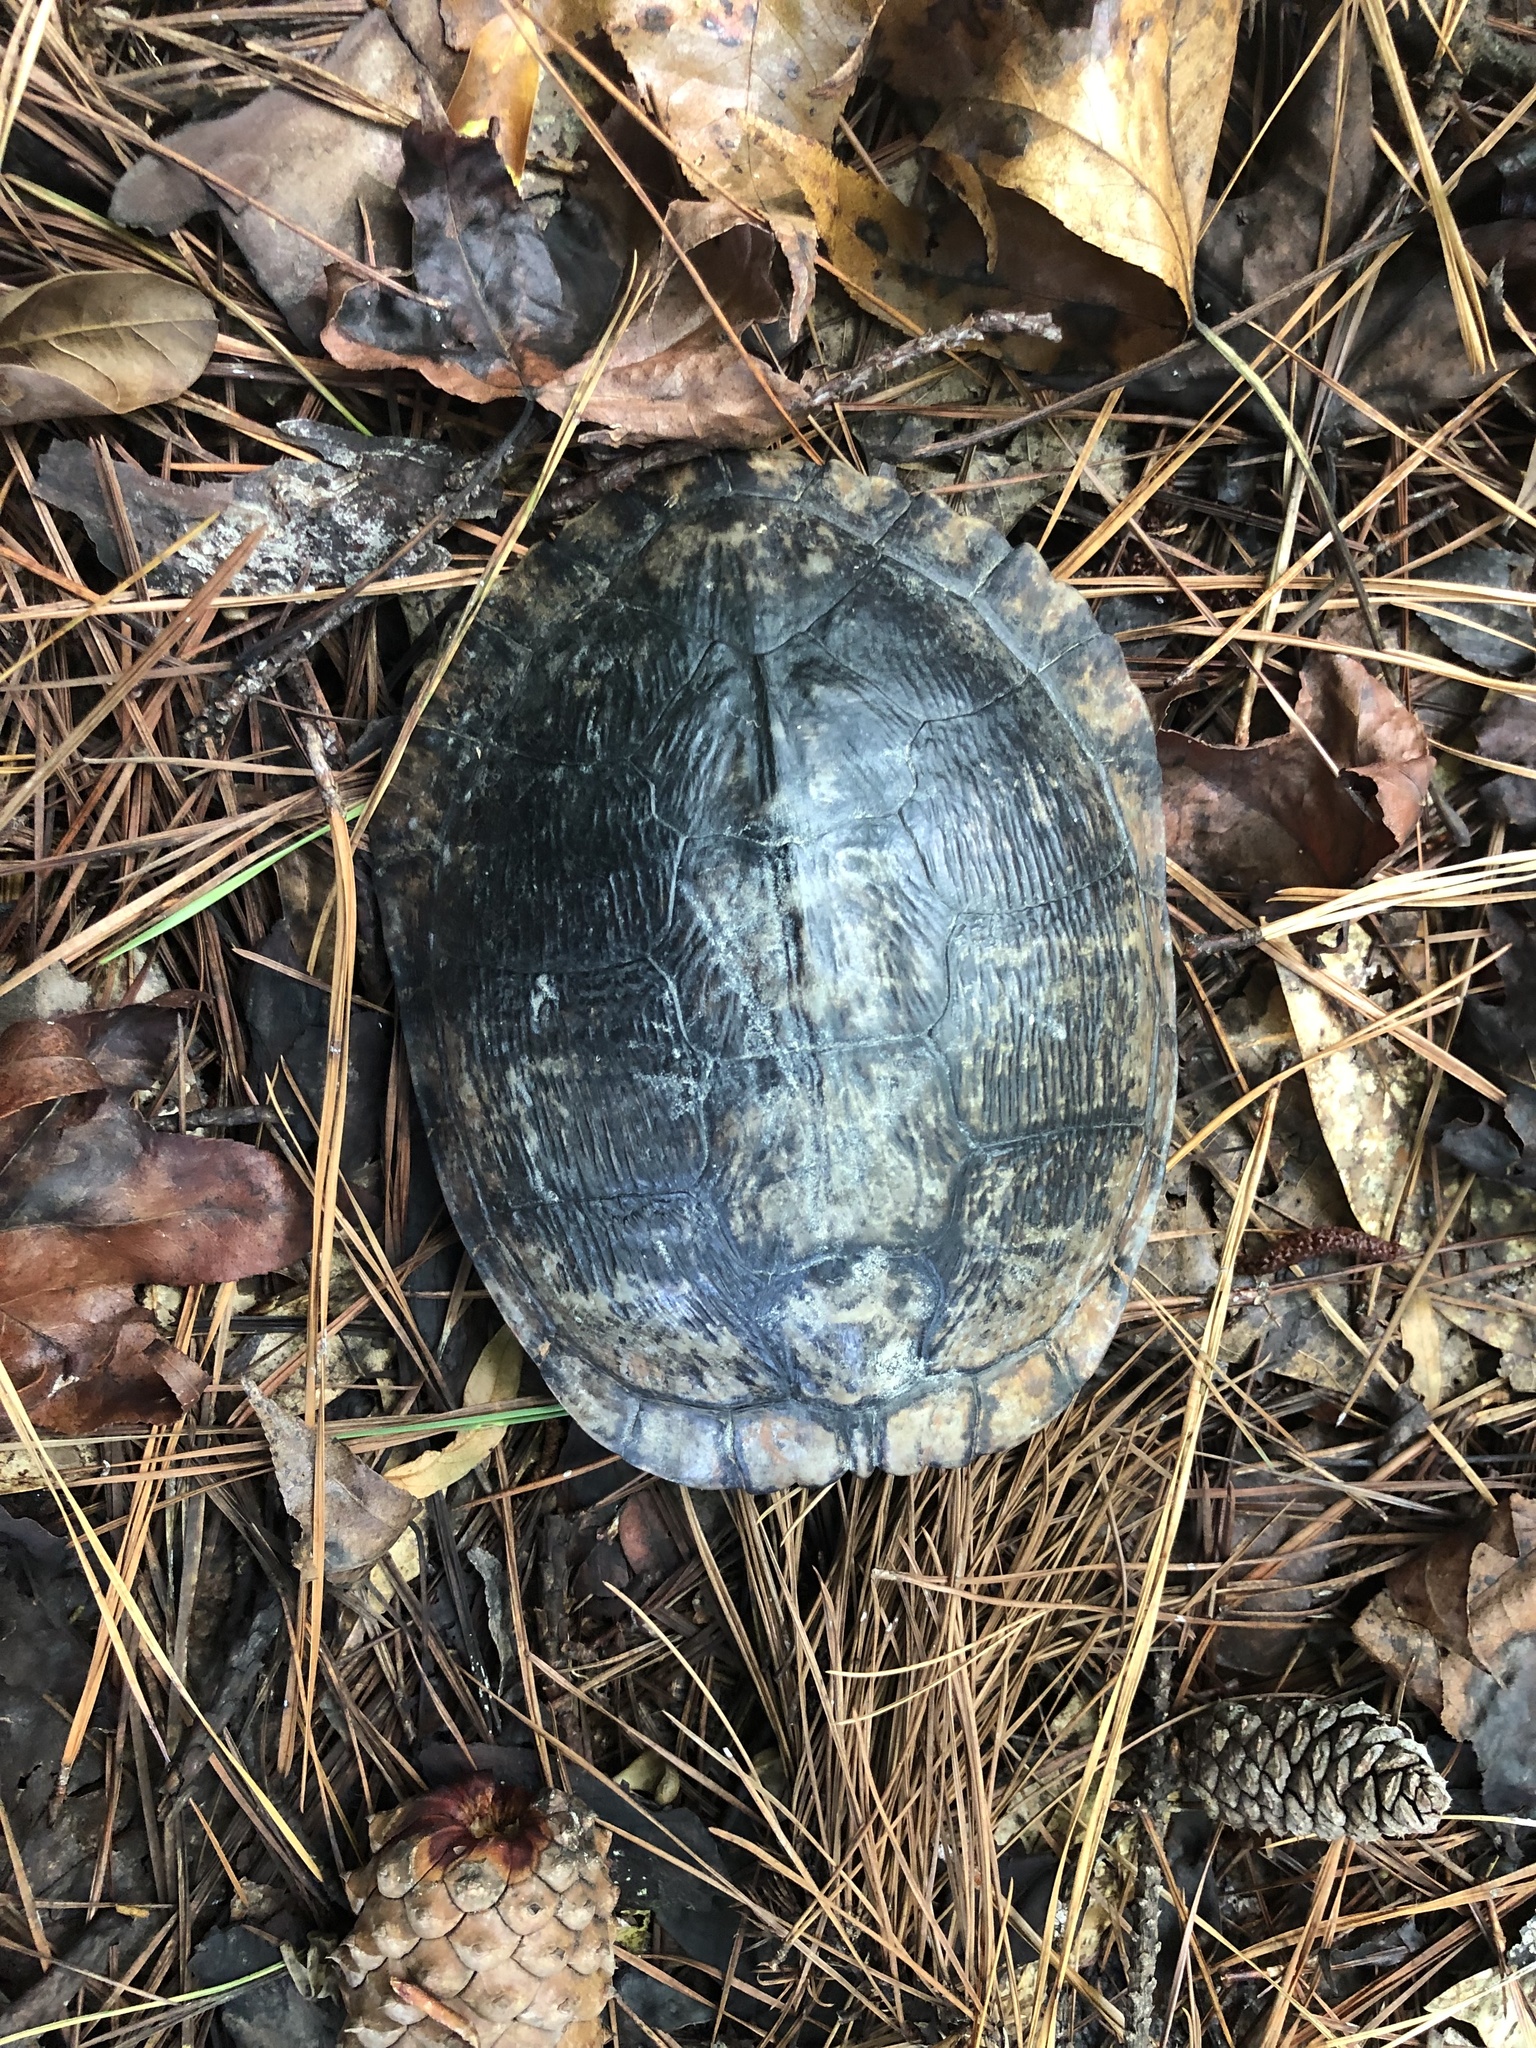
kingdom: Animalia
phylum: Chordata
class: Testudines
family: Emydidae
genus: Trachemys
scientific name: Trachemys scripta
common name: Slider
